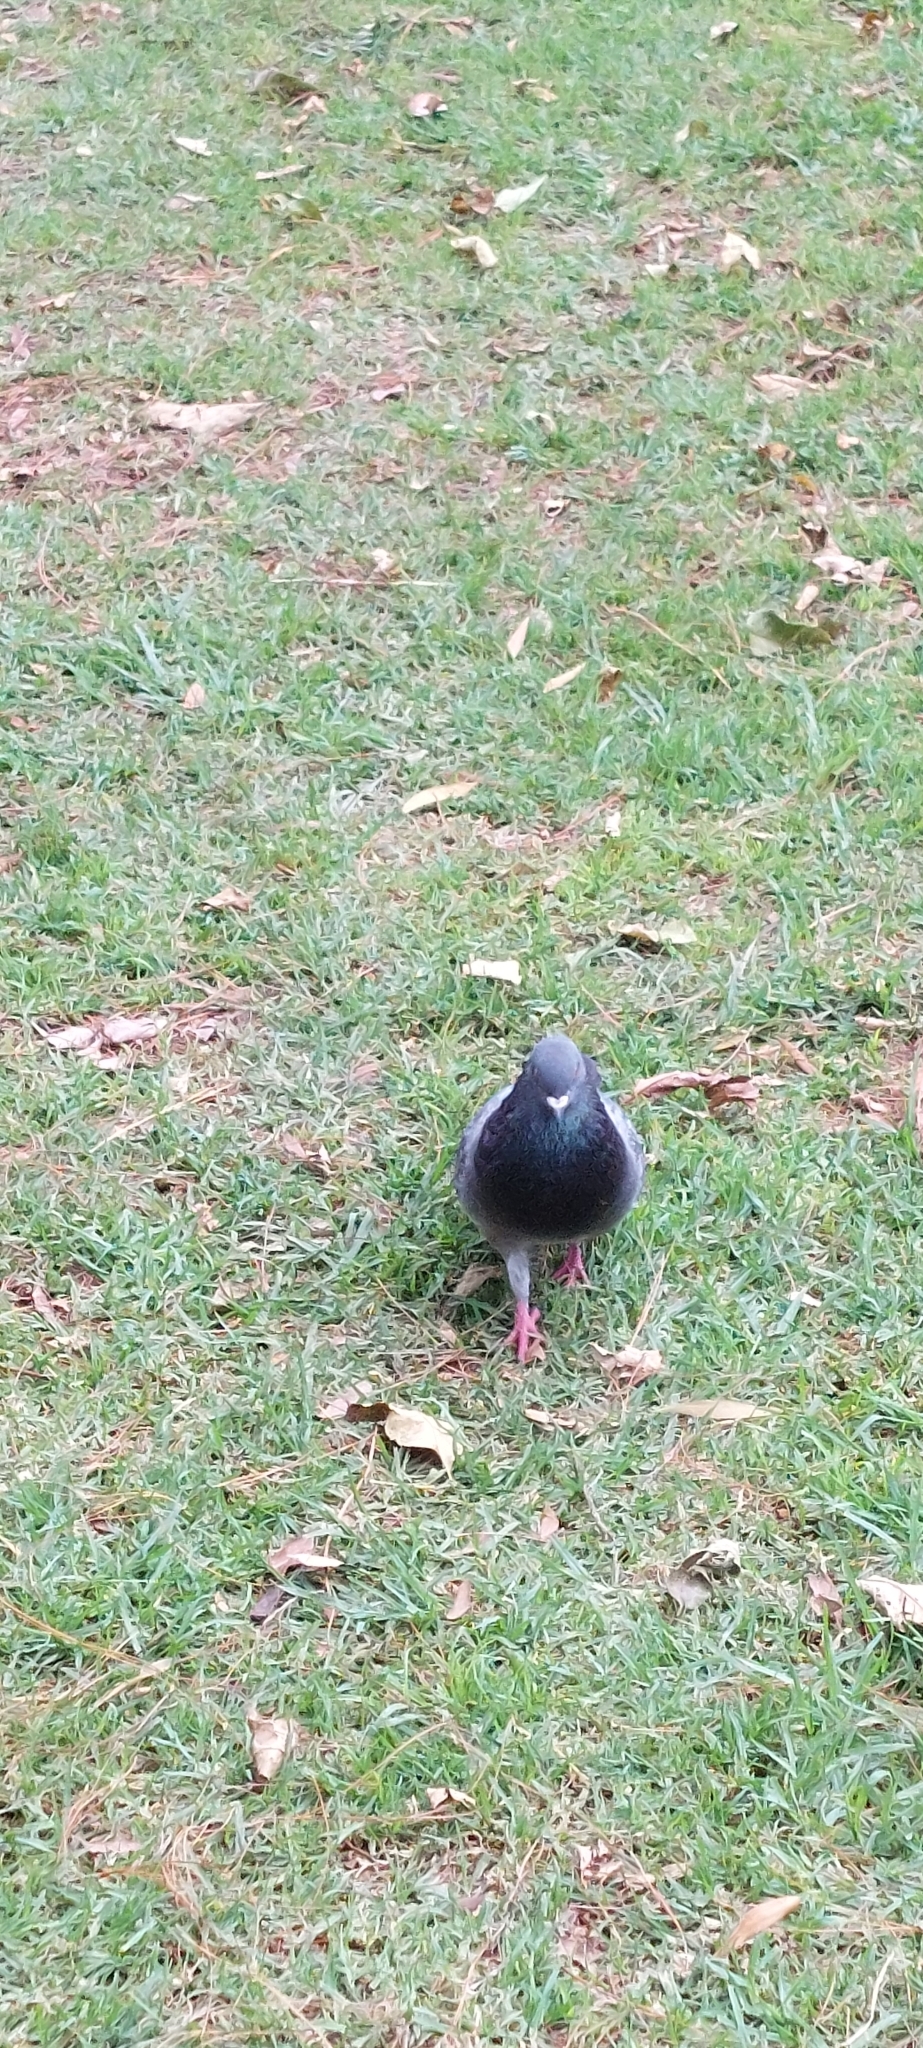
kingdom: Animalia
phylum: Chordata
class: Aves
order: Columbiformes
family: Columbidae
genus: Columba
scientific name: Columba livia
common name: Rock pigeon
